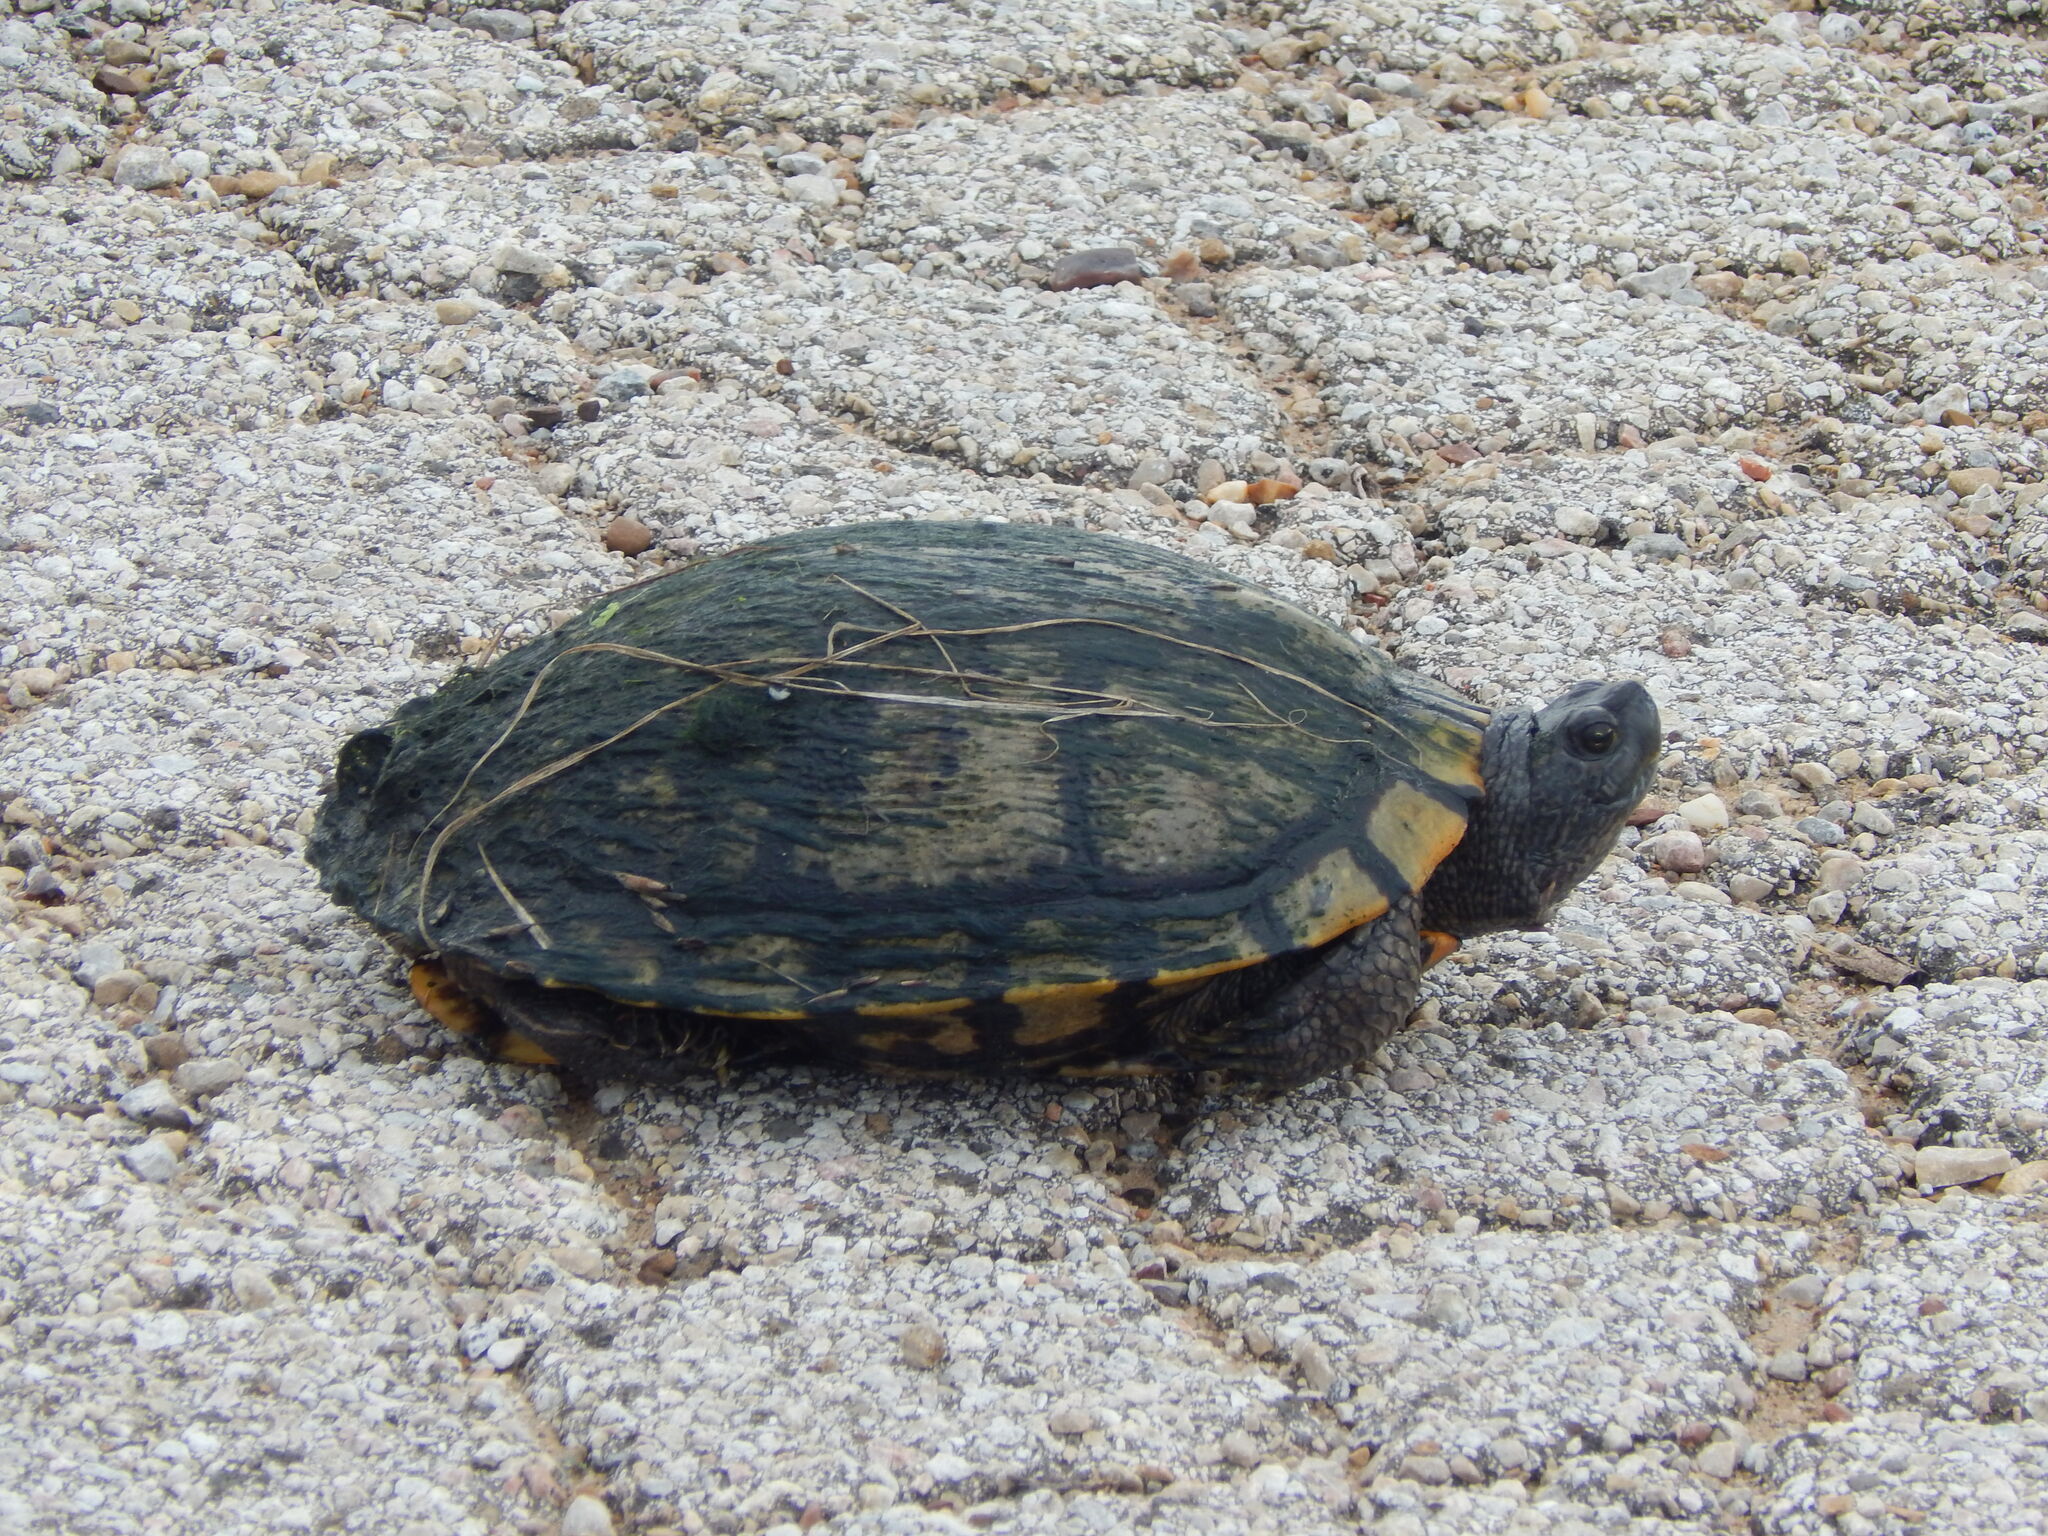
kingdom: Animalia
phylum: Chordata
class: Testudines
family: Emydidae
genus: Trachemys
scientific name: Trachemys scripta
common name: Slider
